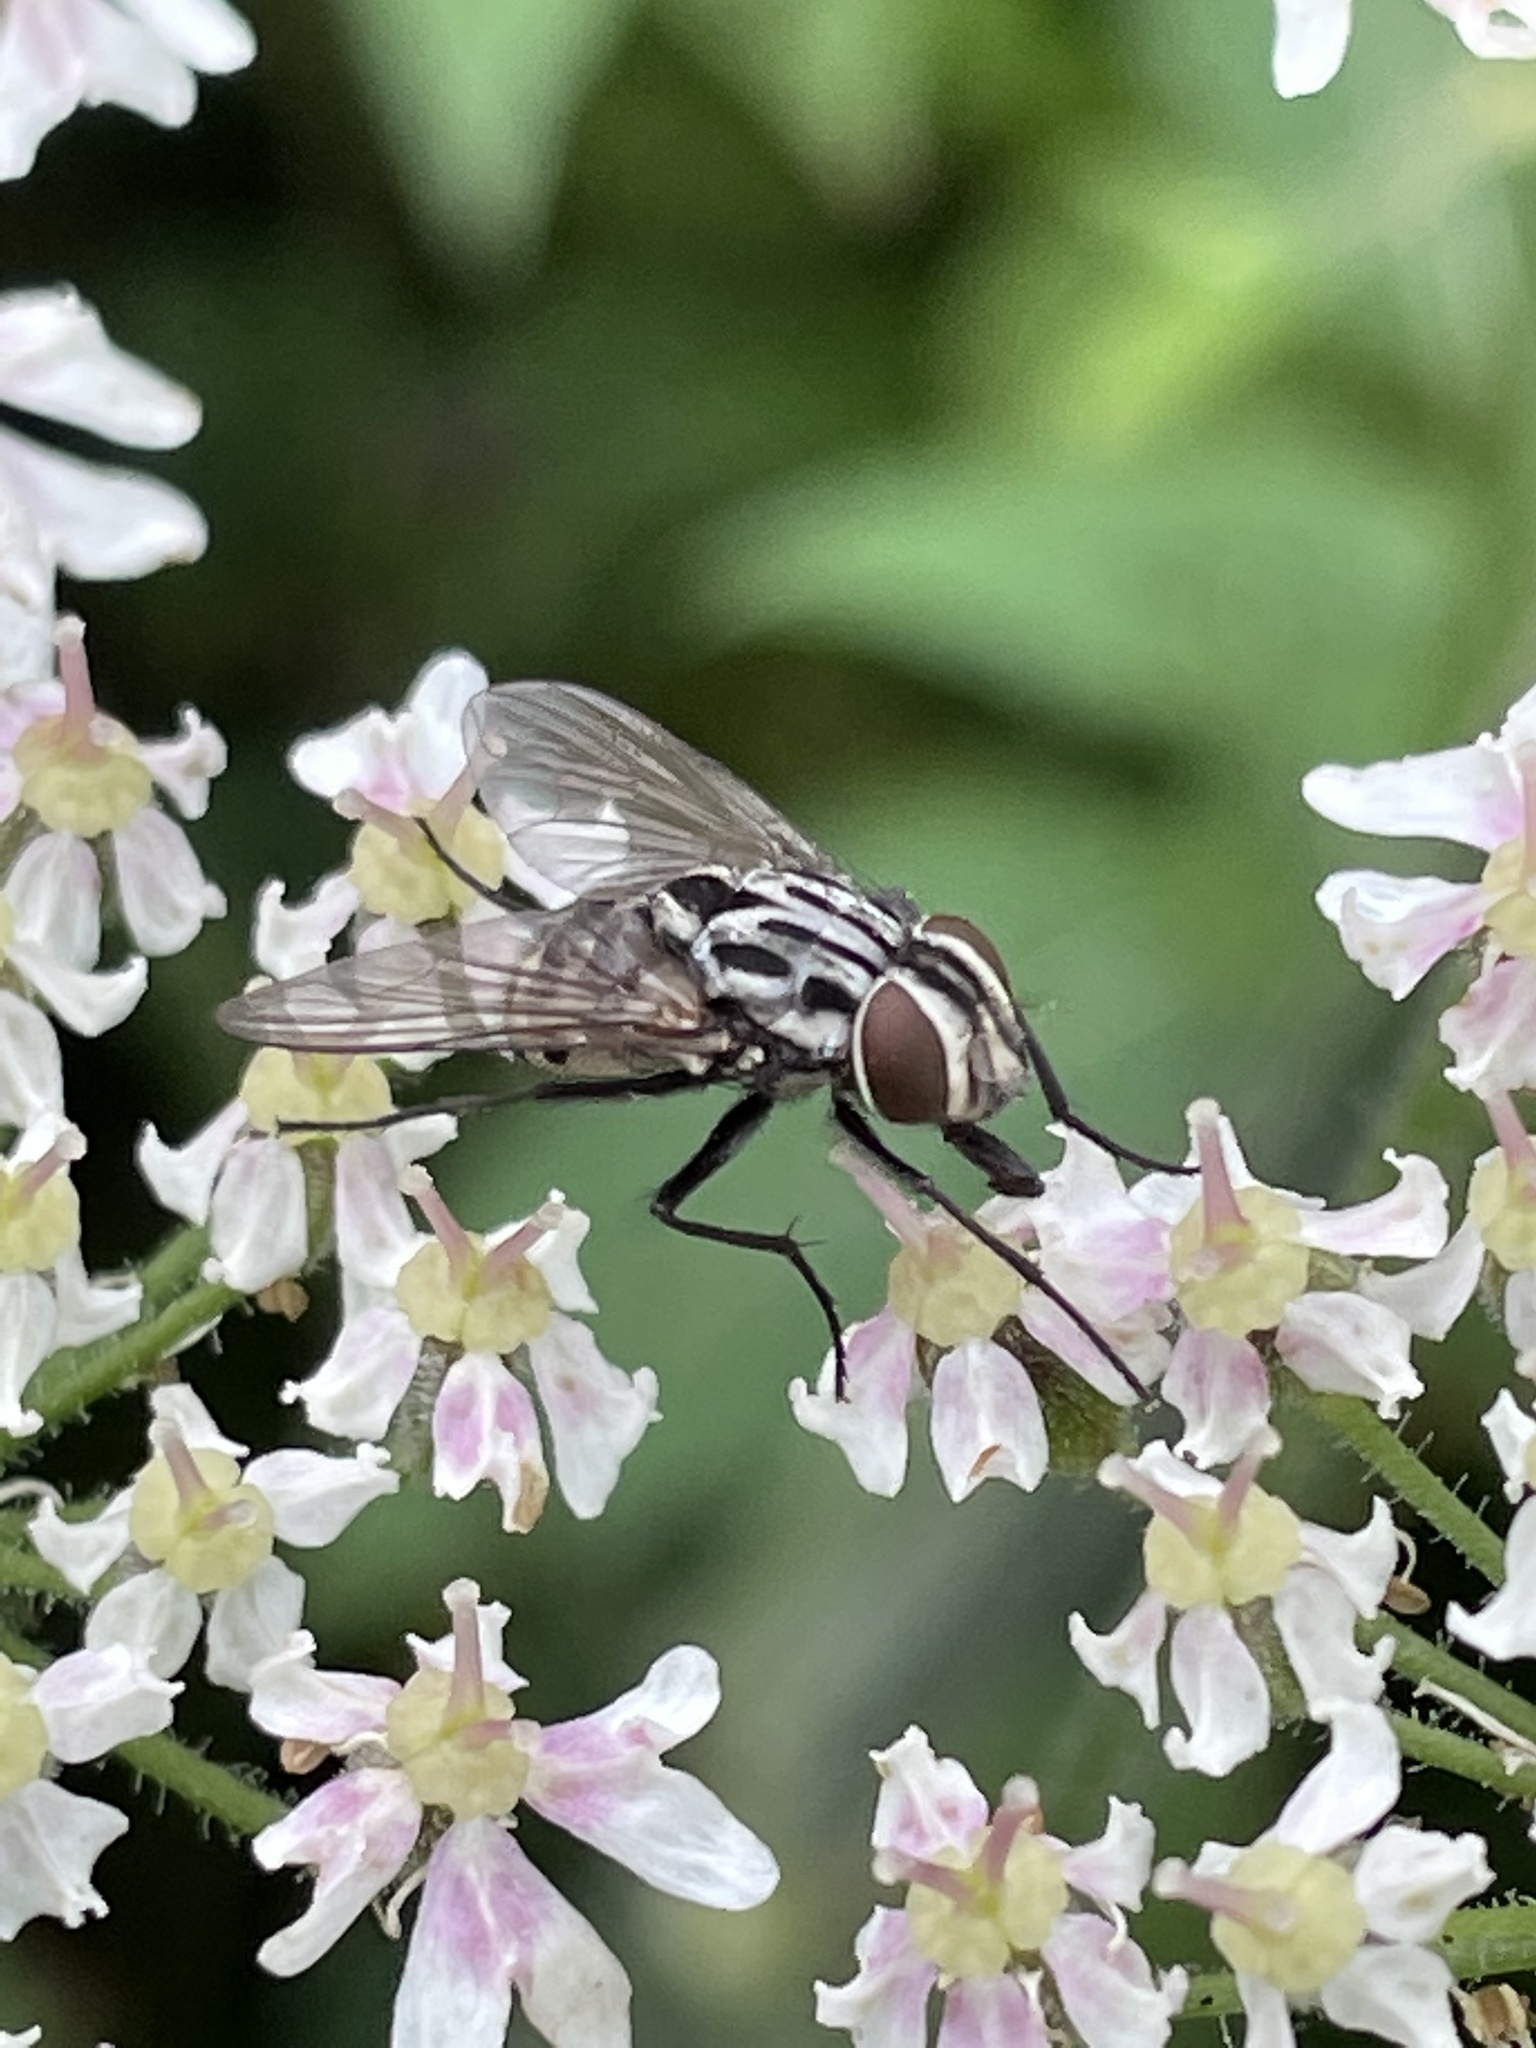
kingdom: Animalia
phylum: Arthropoda
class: Insecta
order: Diptera
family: Muscidae
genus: Graphomya
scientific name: Graphomya maculata
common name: Muscid fly
